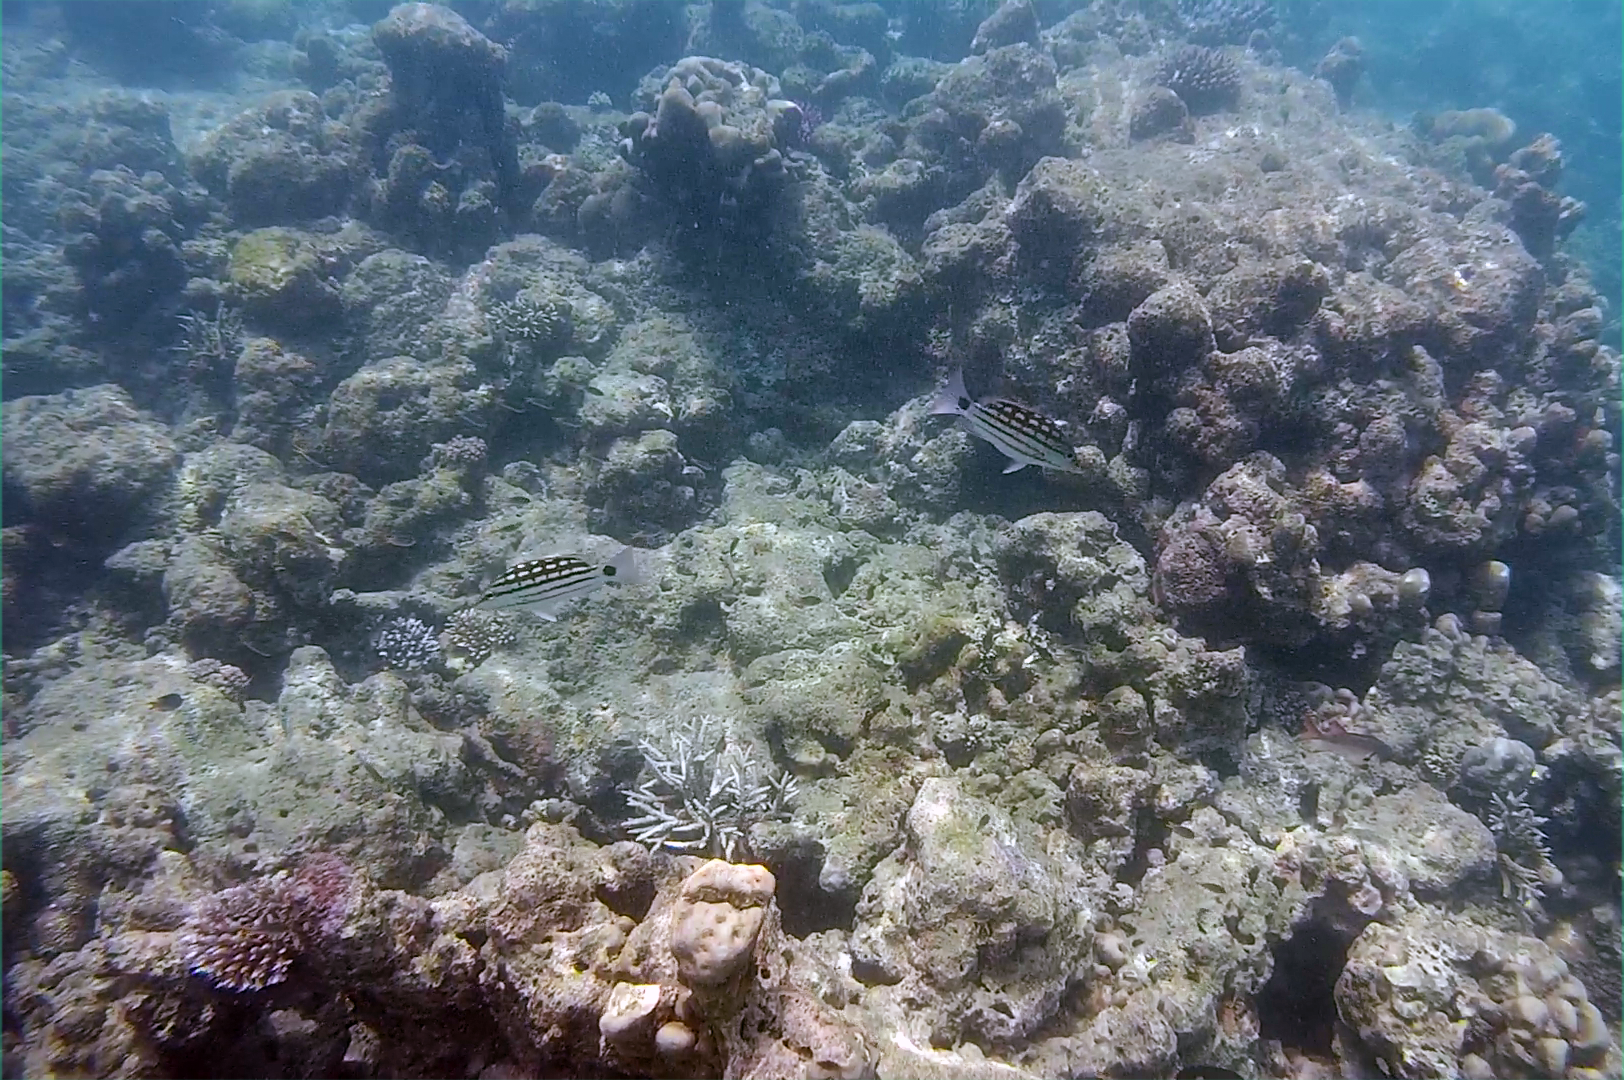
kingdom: Animalia
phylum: Chordata
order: Perciformes
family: Lutjanidae
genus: Lutjanus
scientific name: Lutjanus decussatus
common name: Checkered snapper
